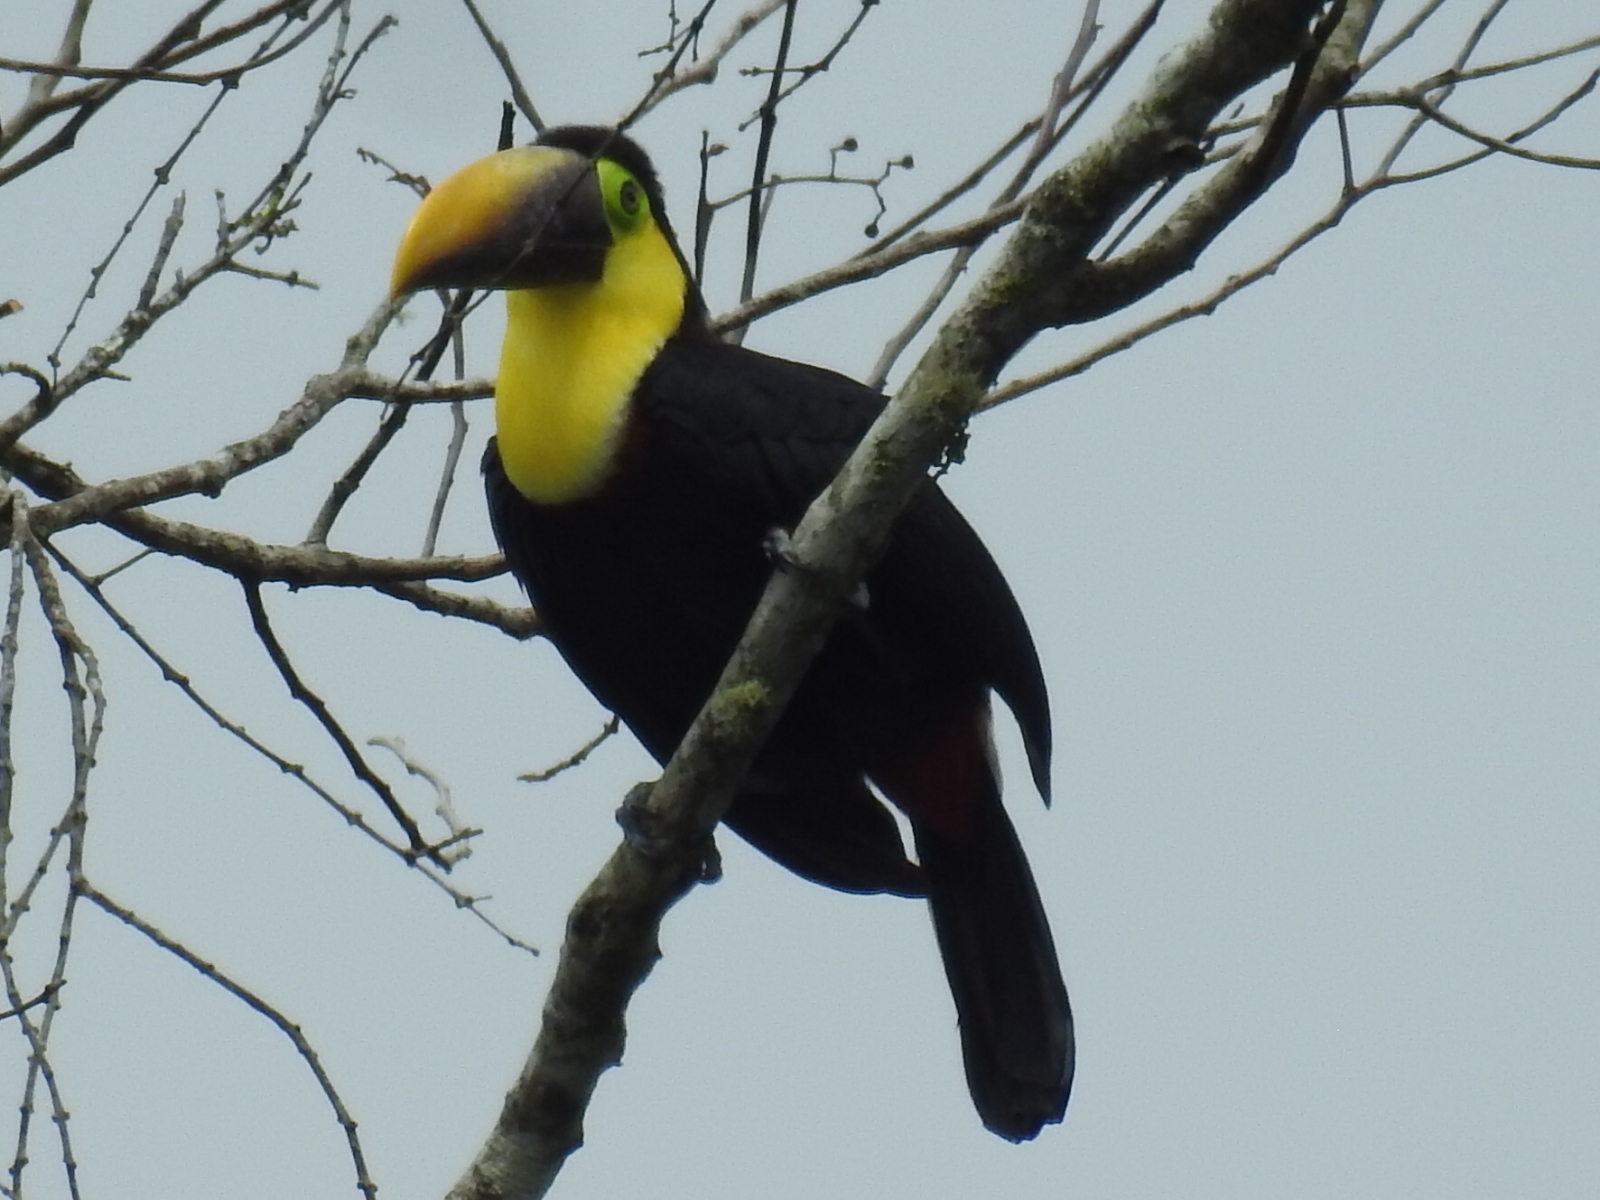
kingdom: Animalia
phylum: Chordata
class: Aves
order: Piciformes
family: Ramphastidae
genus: Ramphastos
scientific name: Ramphastos ambiguus
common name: Yellow-throated toucan
